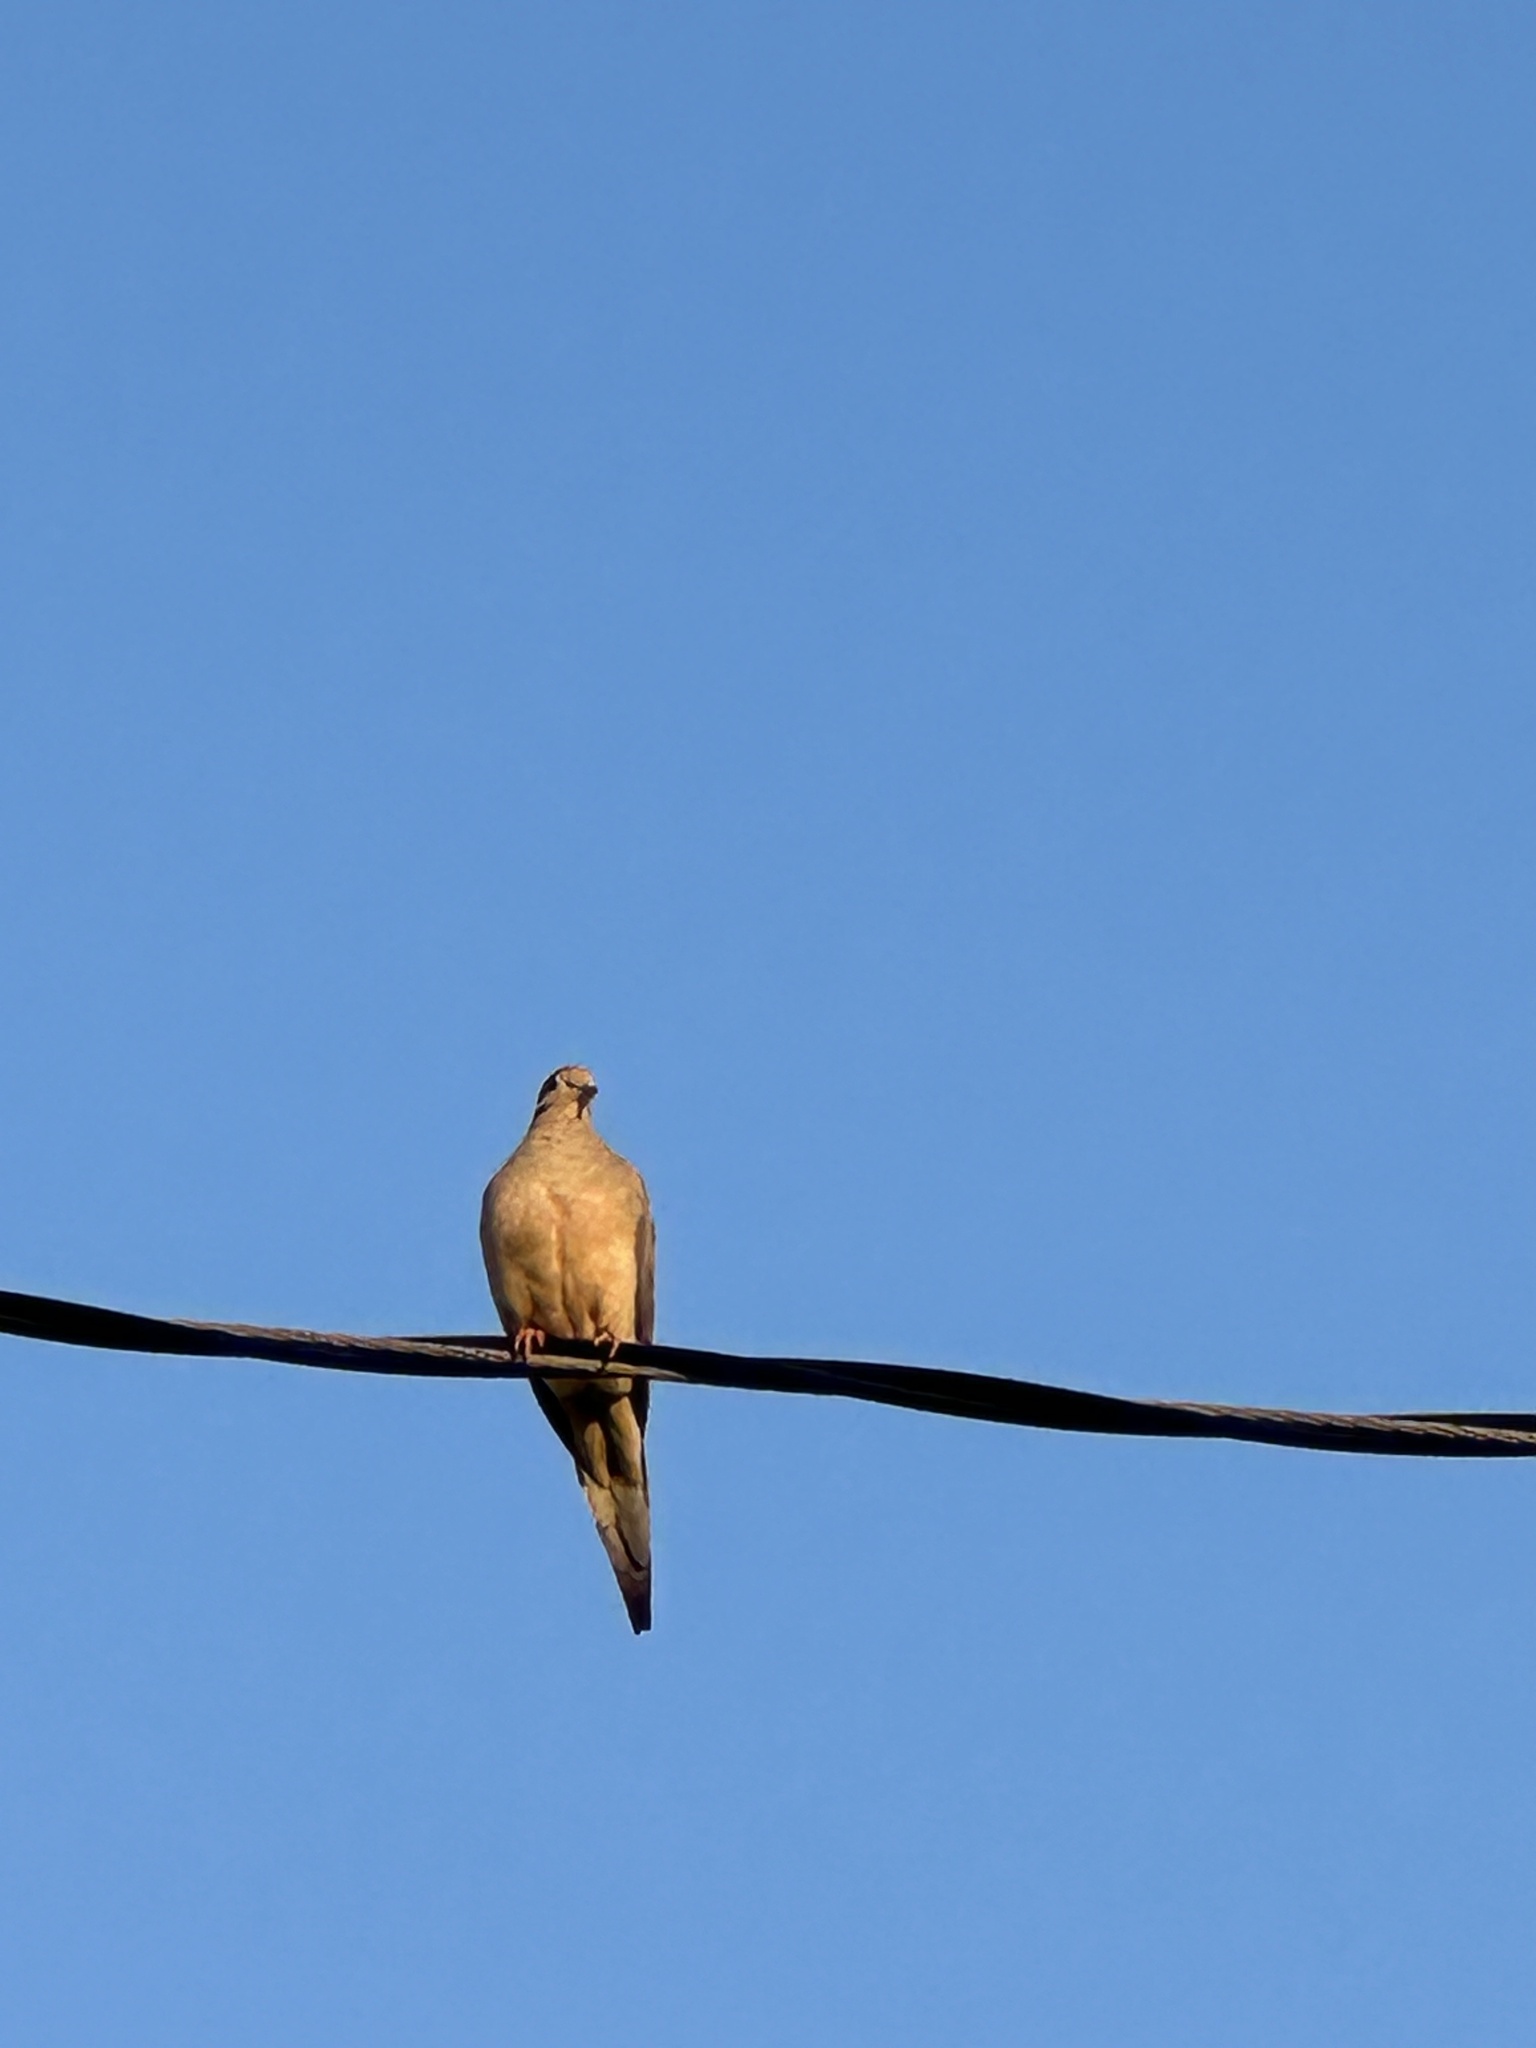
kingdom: Animalia
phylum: Chordata
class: Aves
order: Columbiformes
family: Columbidae
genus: Zenaida
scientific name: Zenaida macroura
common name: Mourning dove
